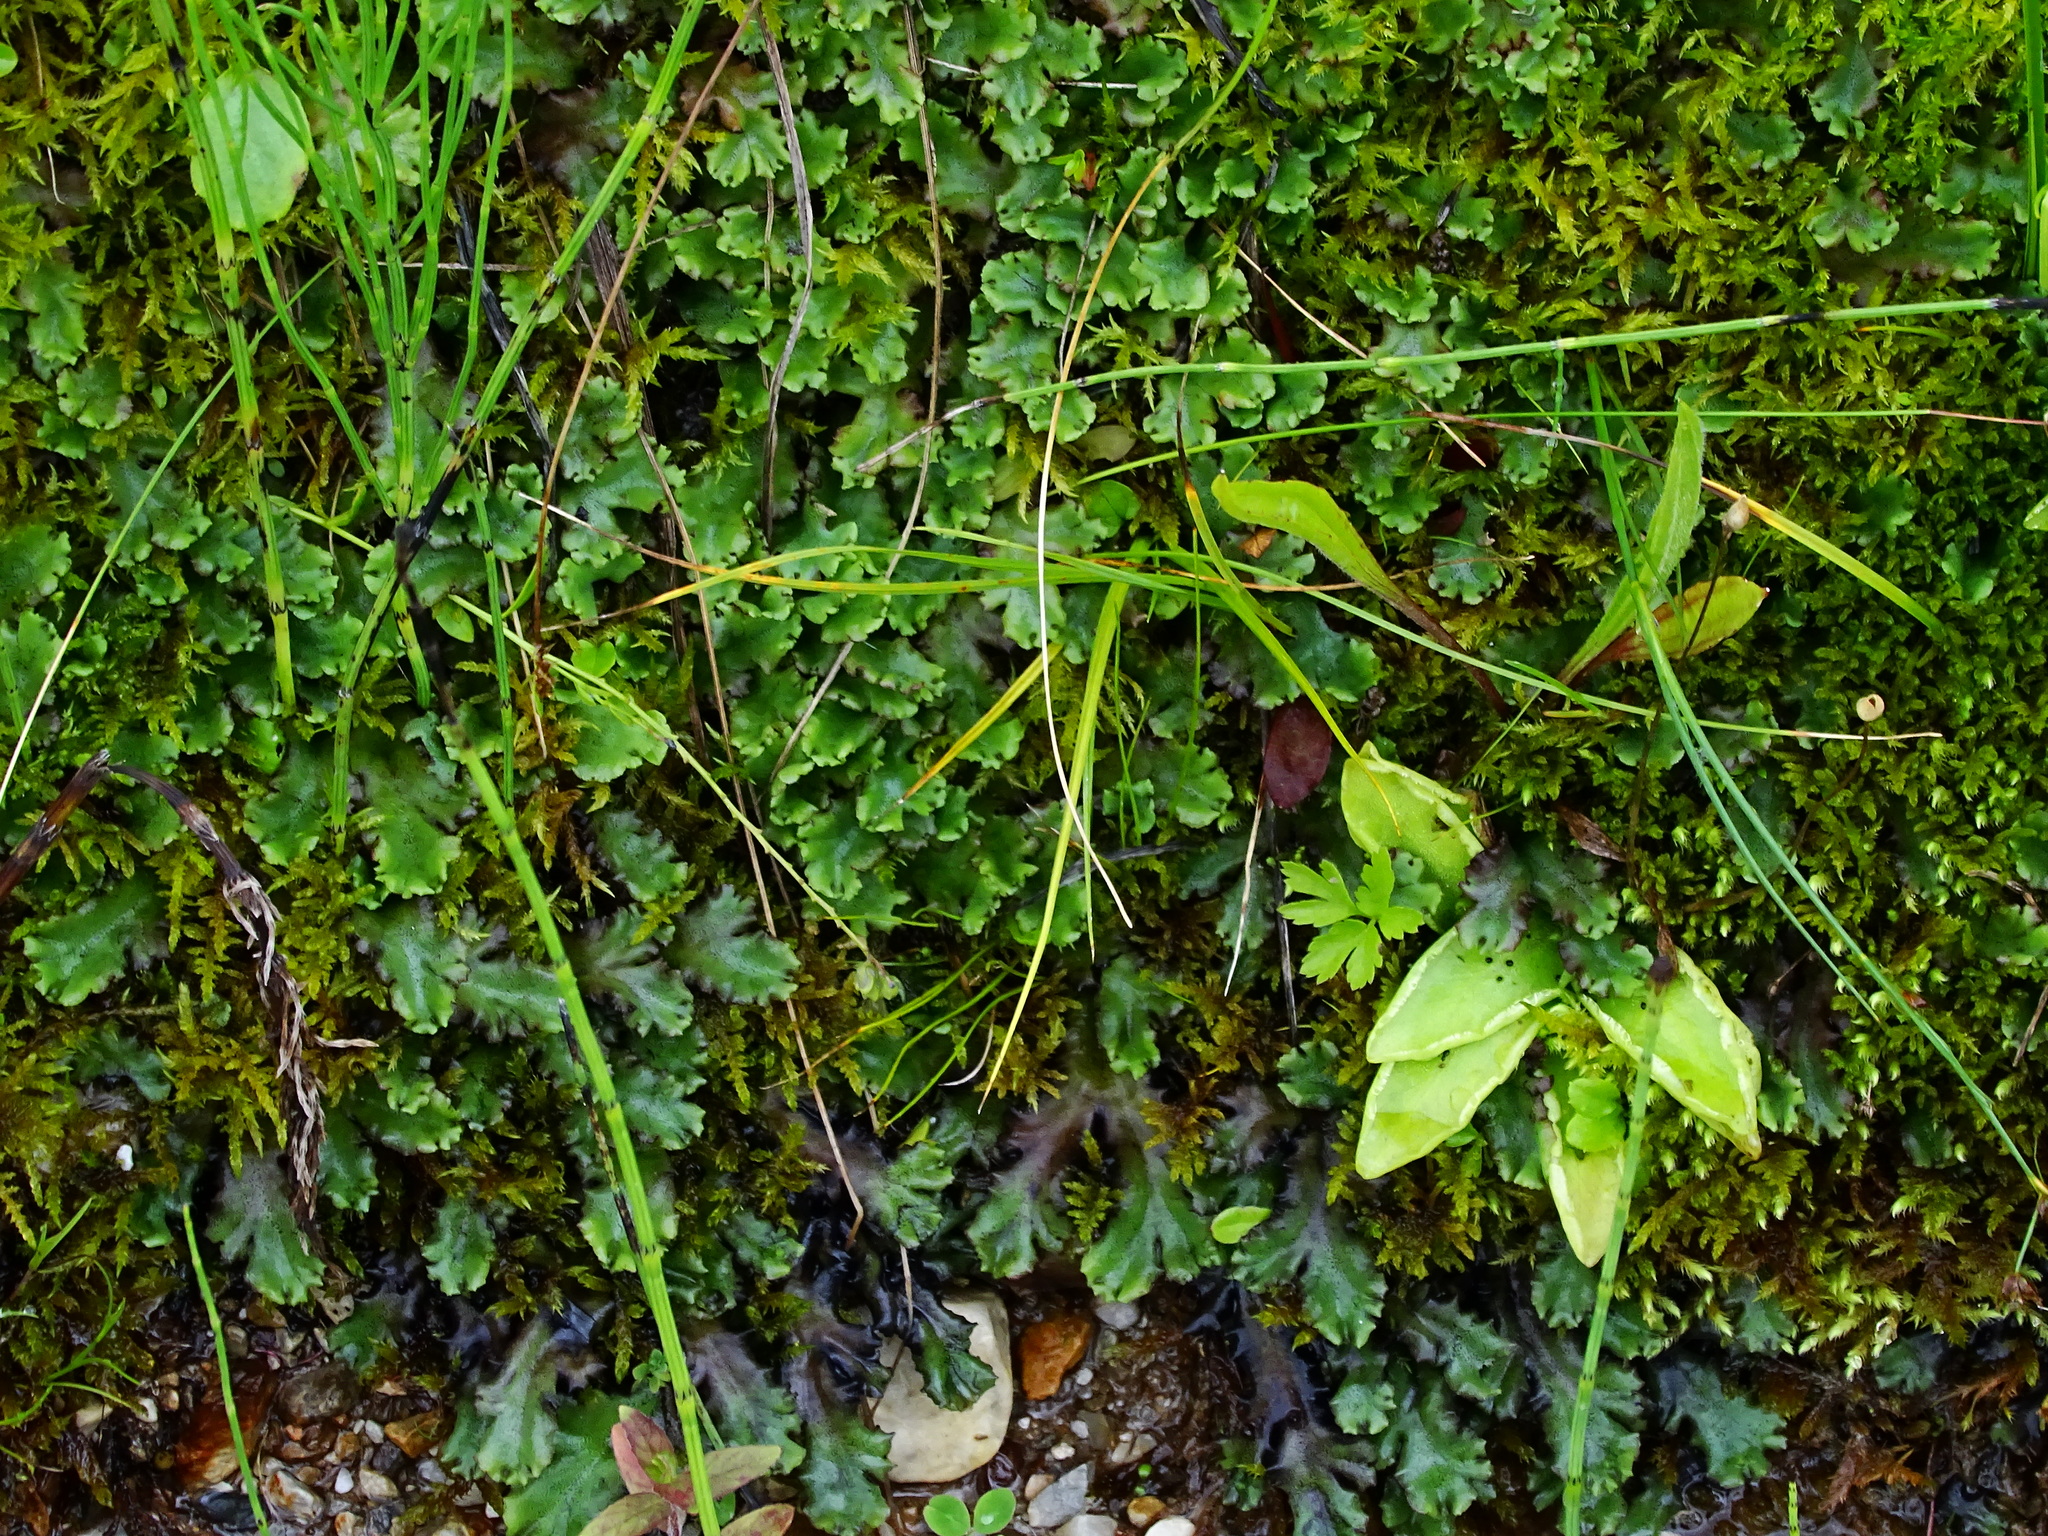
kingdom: Plantae
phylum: Marchantiophyta
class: Marchantiopsida
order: Marchantiales
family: Marchantiaceae
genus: Marchantia
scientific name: Marchantia polymorpha
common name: Common liverwort
